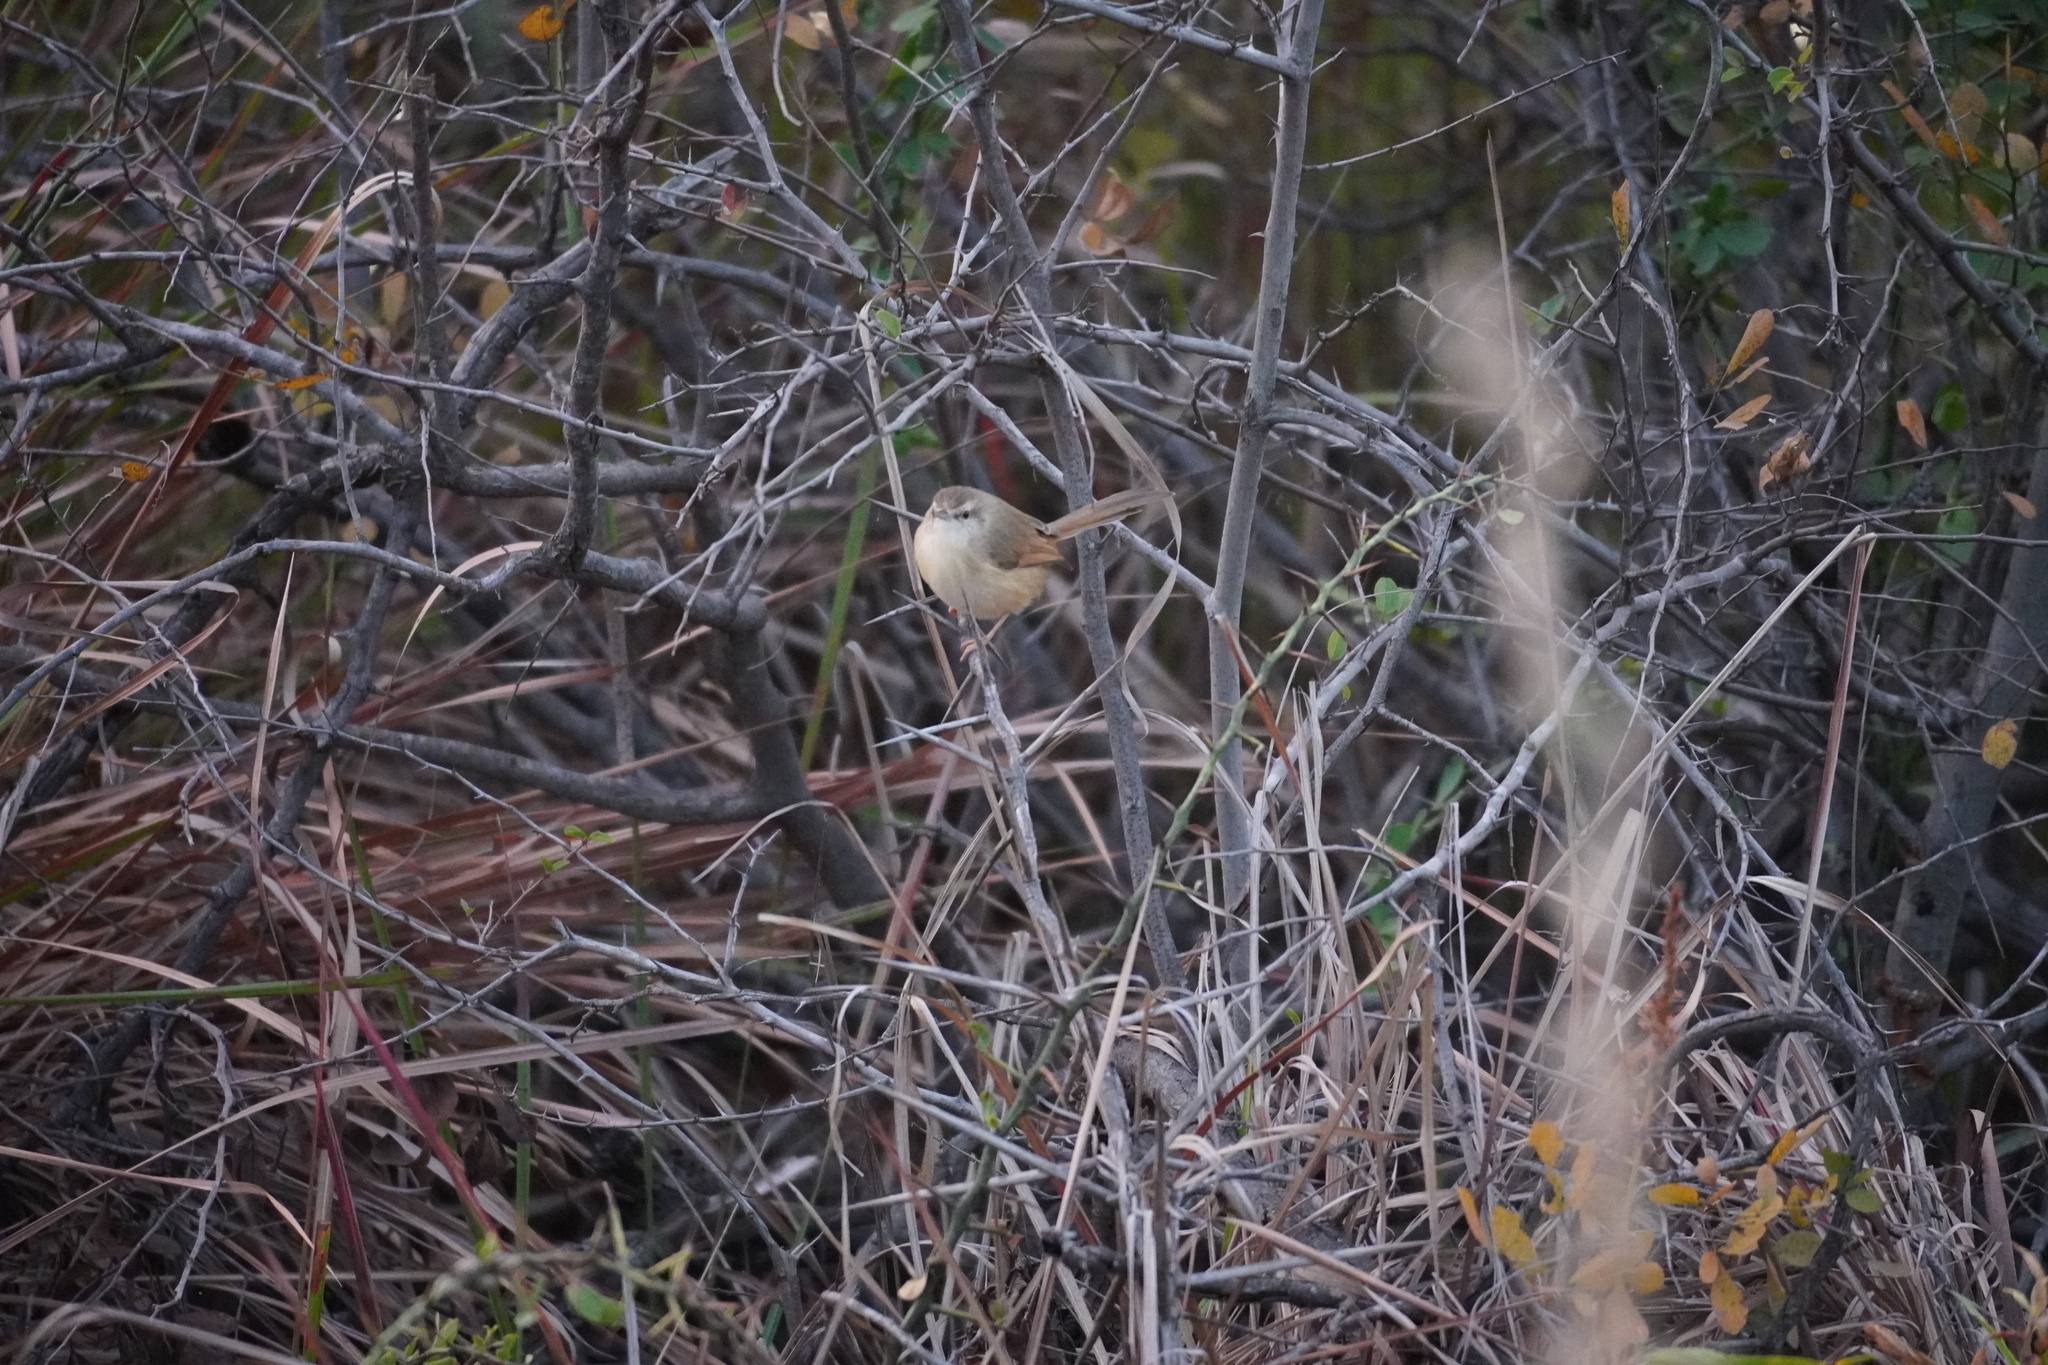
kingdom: Animalia
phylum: Chordata
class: Aves
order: Passeriformes
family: Cisticolidae
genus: Prinia
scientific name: Prinia subflava
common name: Tawny-flanked prinia
